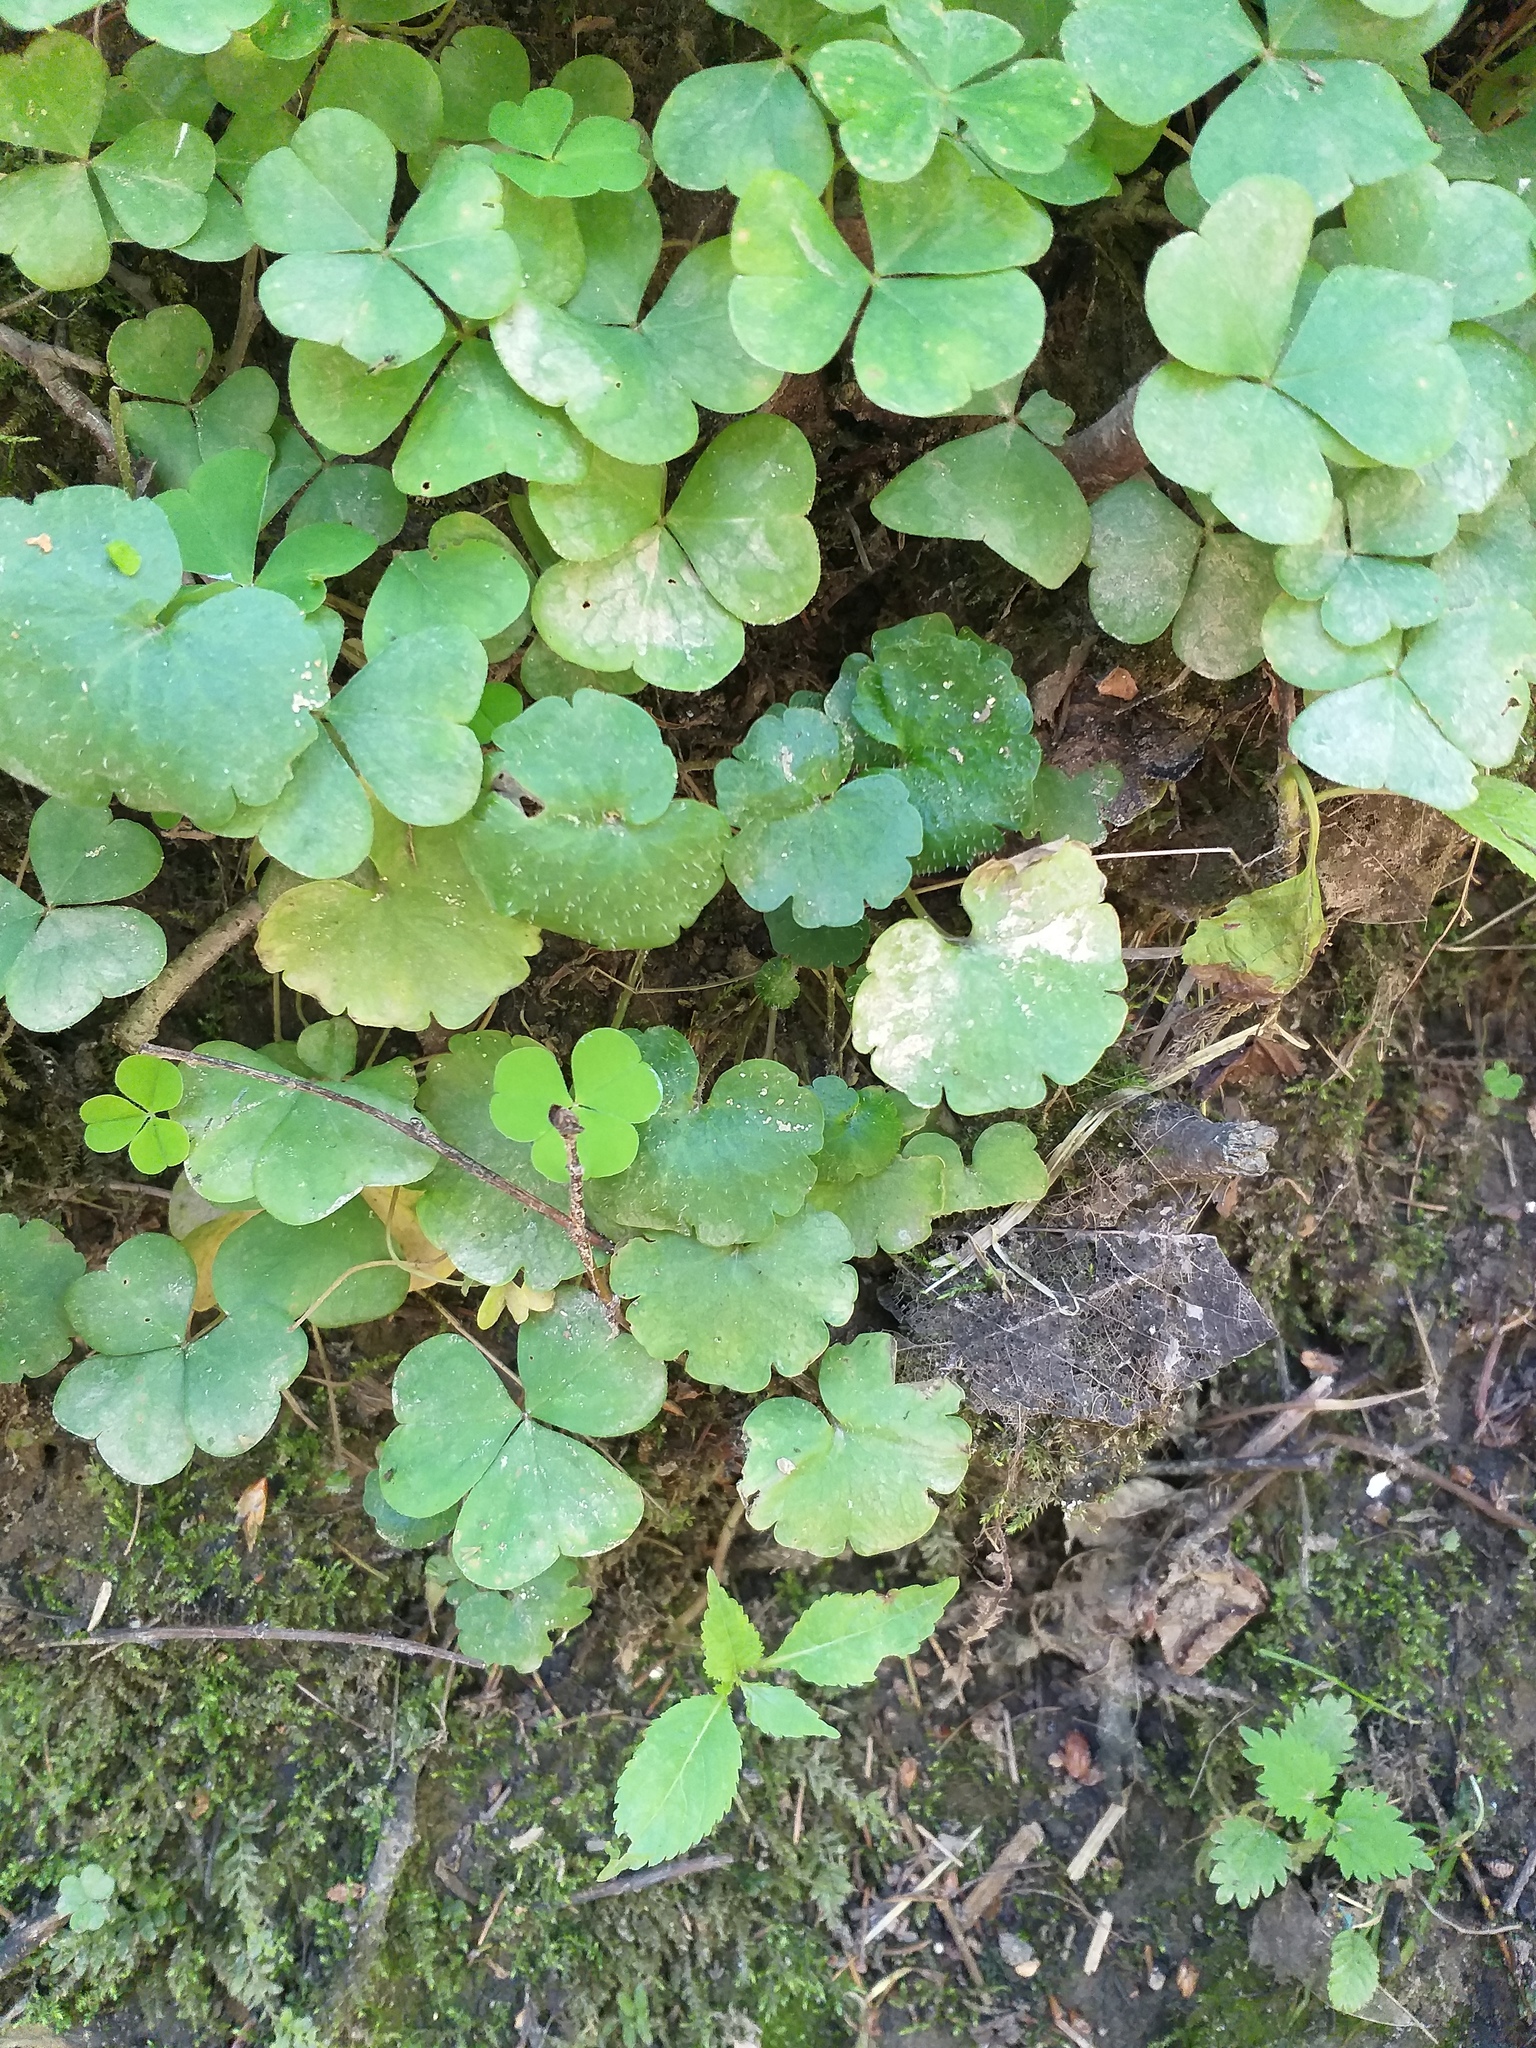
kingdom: Plantae
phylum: Tracheophyta
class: Magnoliopsida
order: Saxifragales
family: Saxifragaceae
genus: Chrysosplenium
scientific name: Chrysosplenium alternifolium
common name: Alternate-leaved golden-saxifrage
